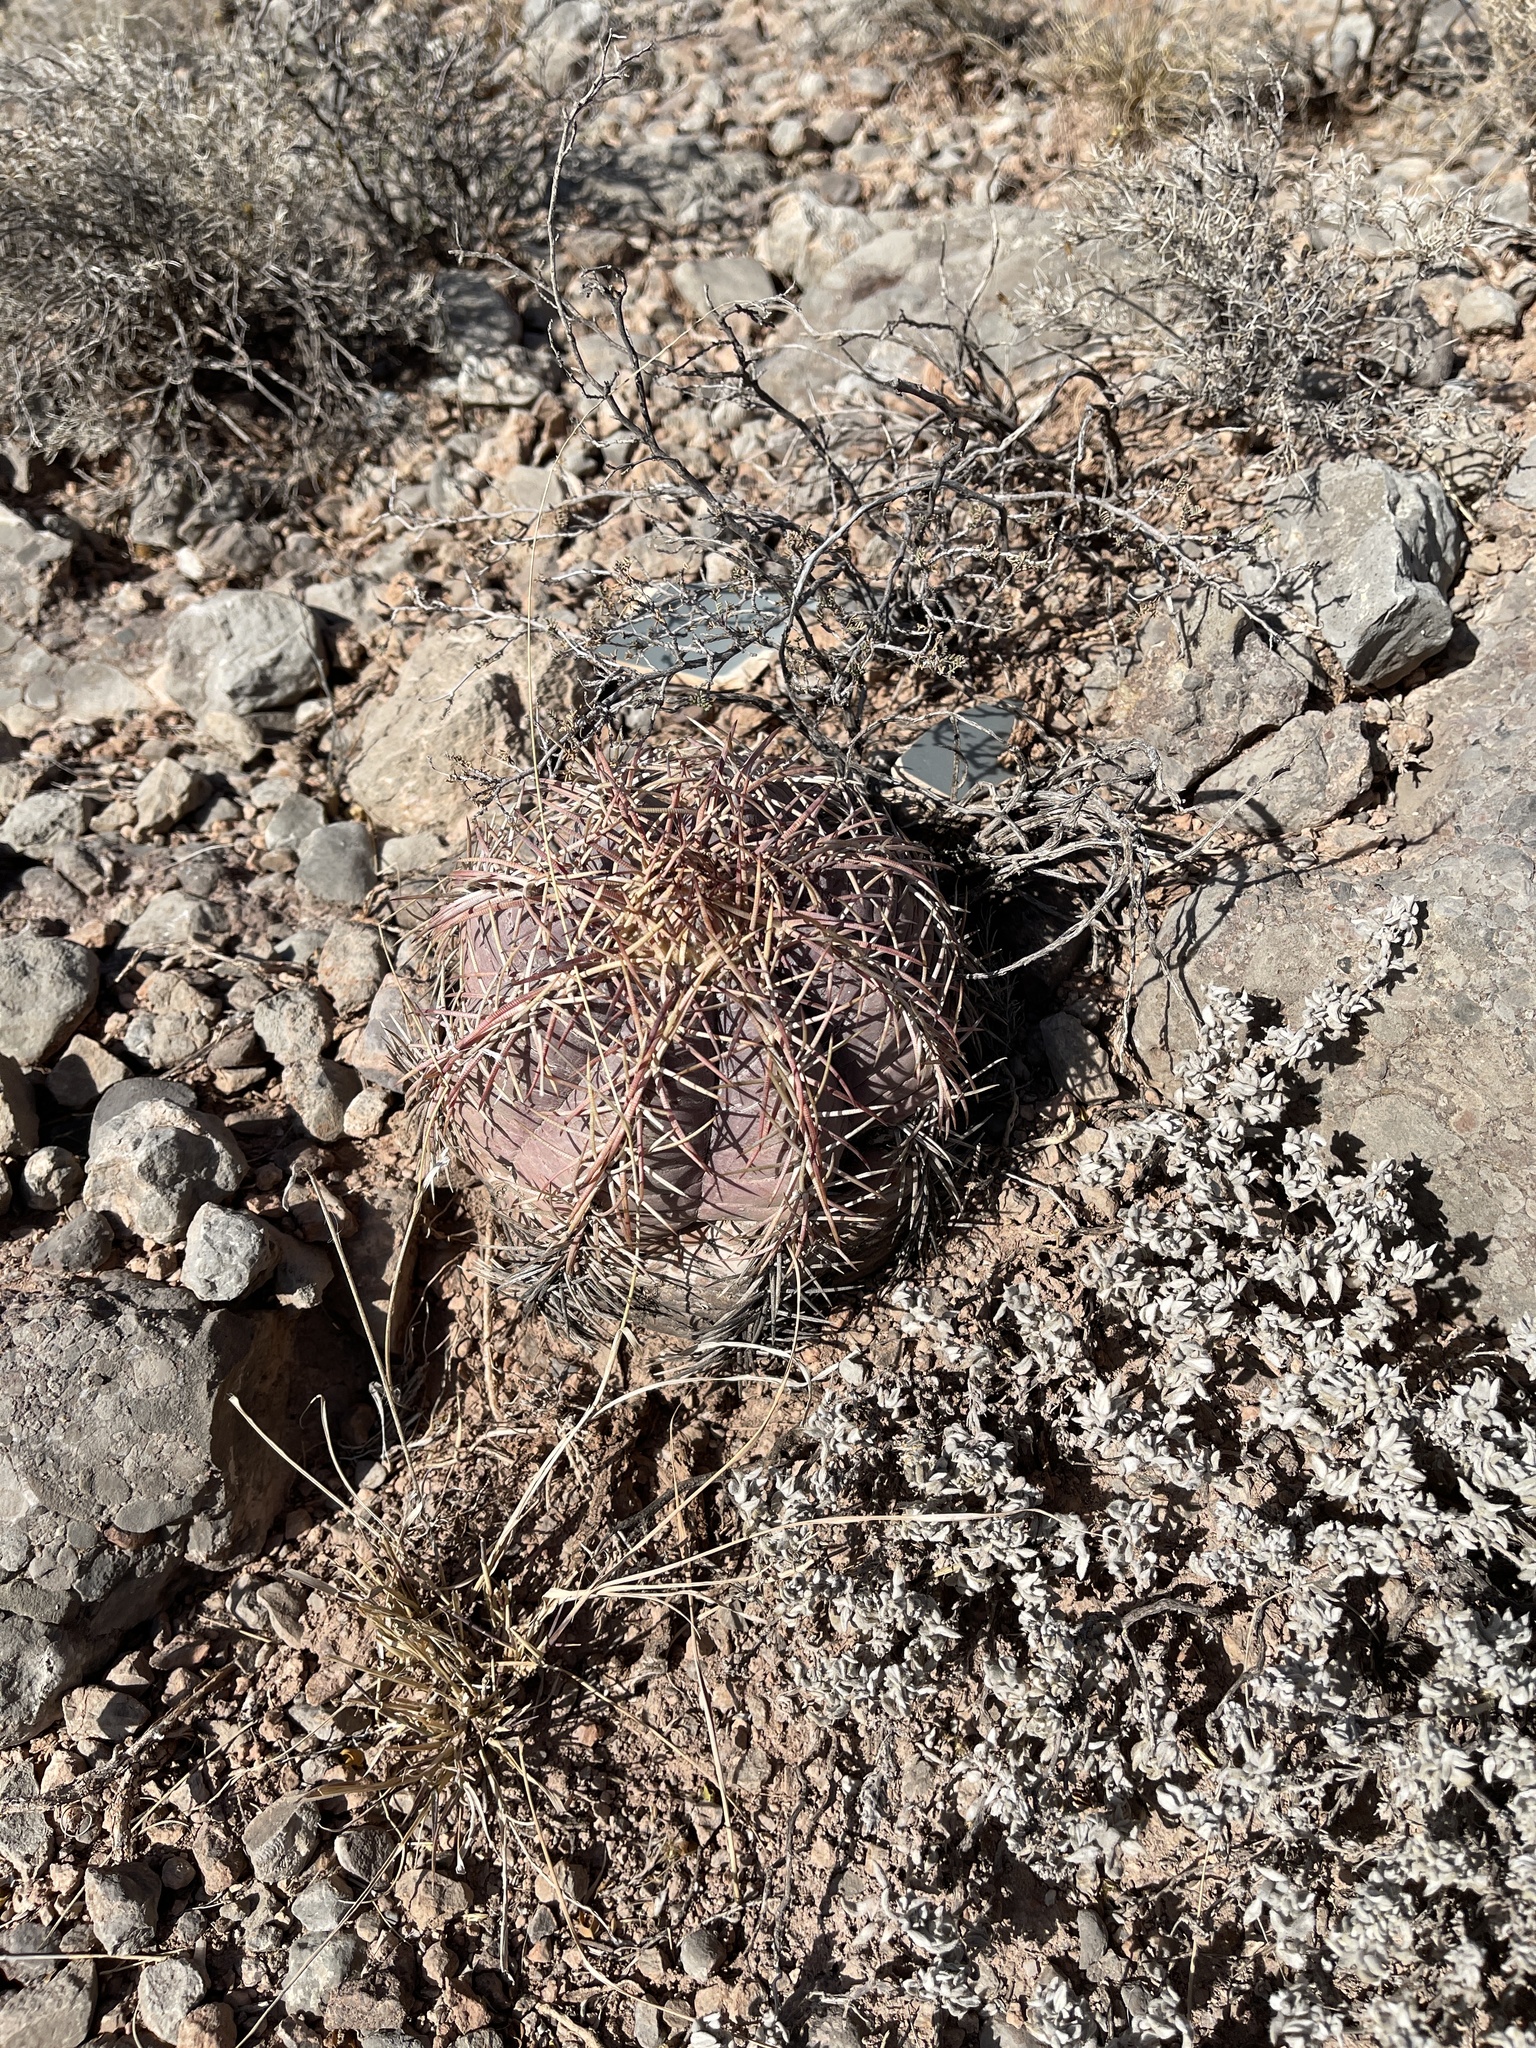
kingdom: Plantae
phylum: Tracheophyta
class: Magnoliopsida
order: Caryophyllales
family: Cactaceae
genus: Echinocactus
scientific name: Echinocactus horizonthalonius
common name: Devilshead
